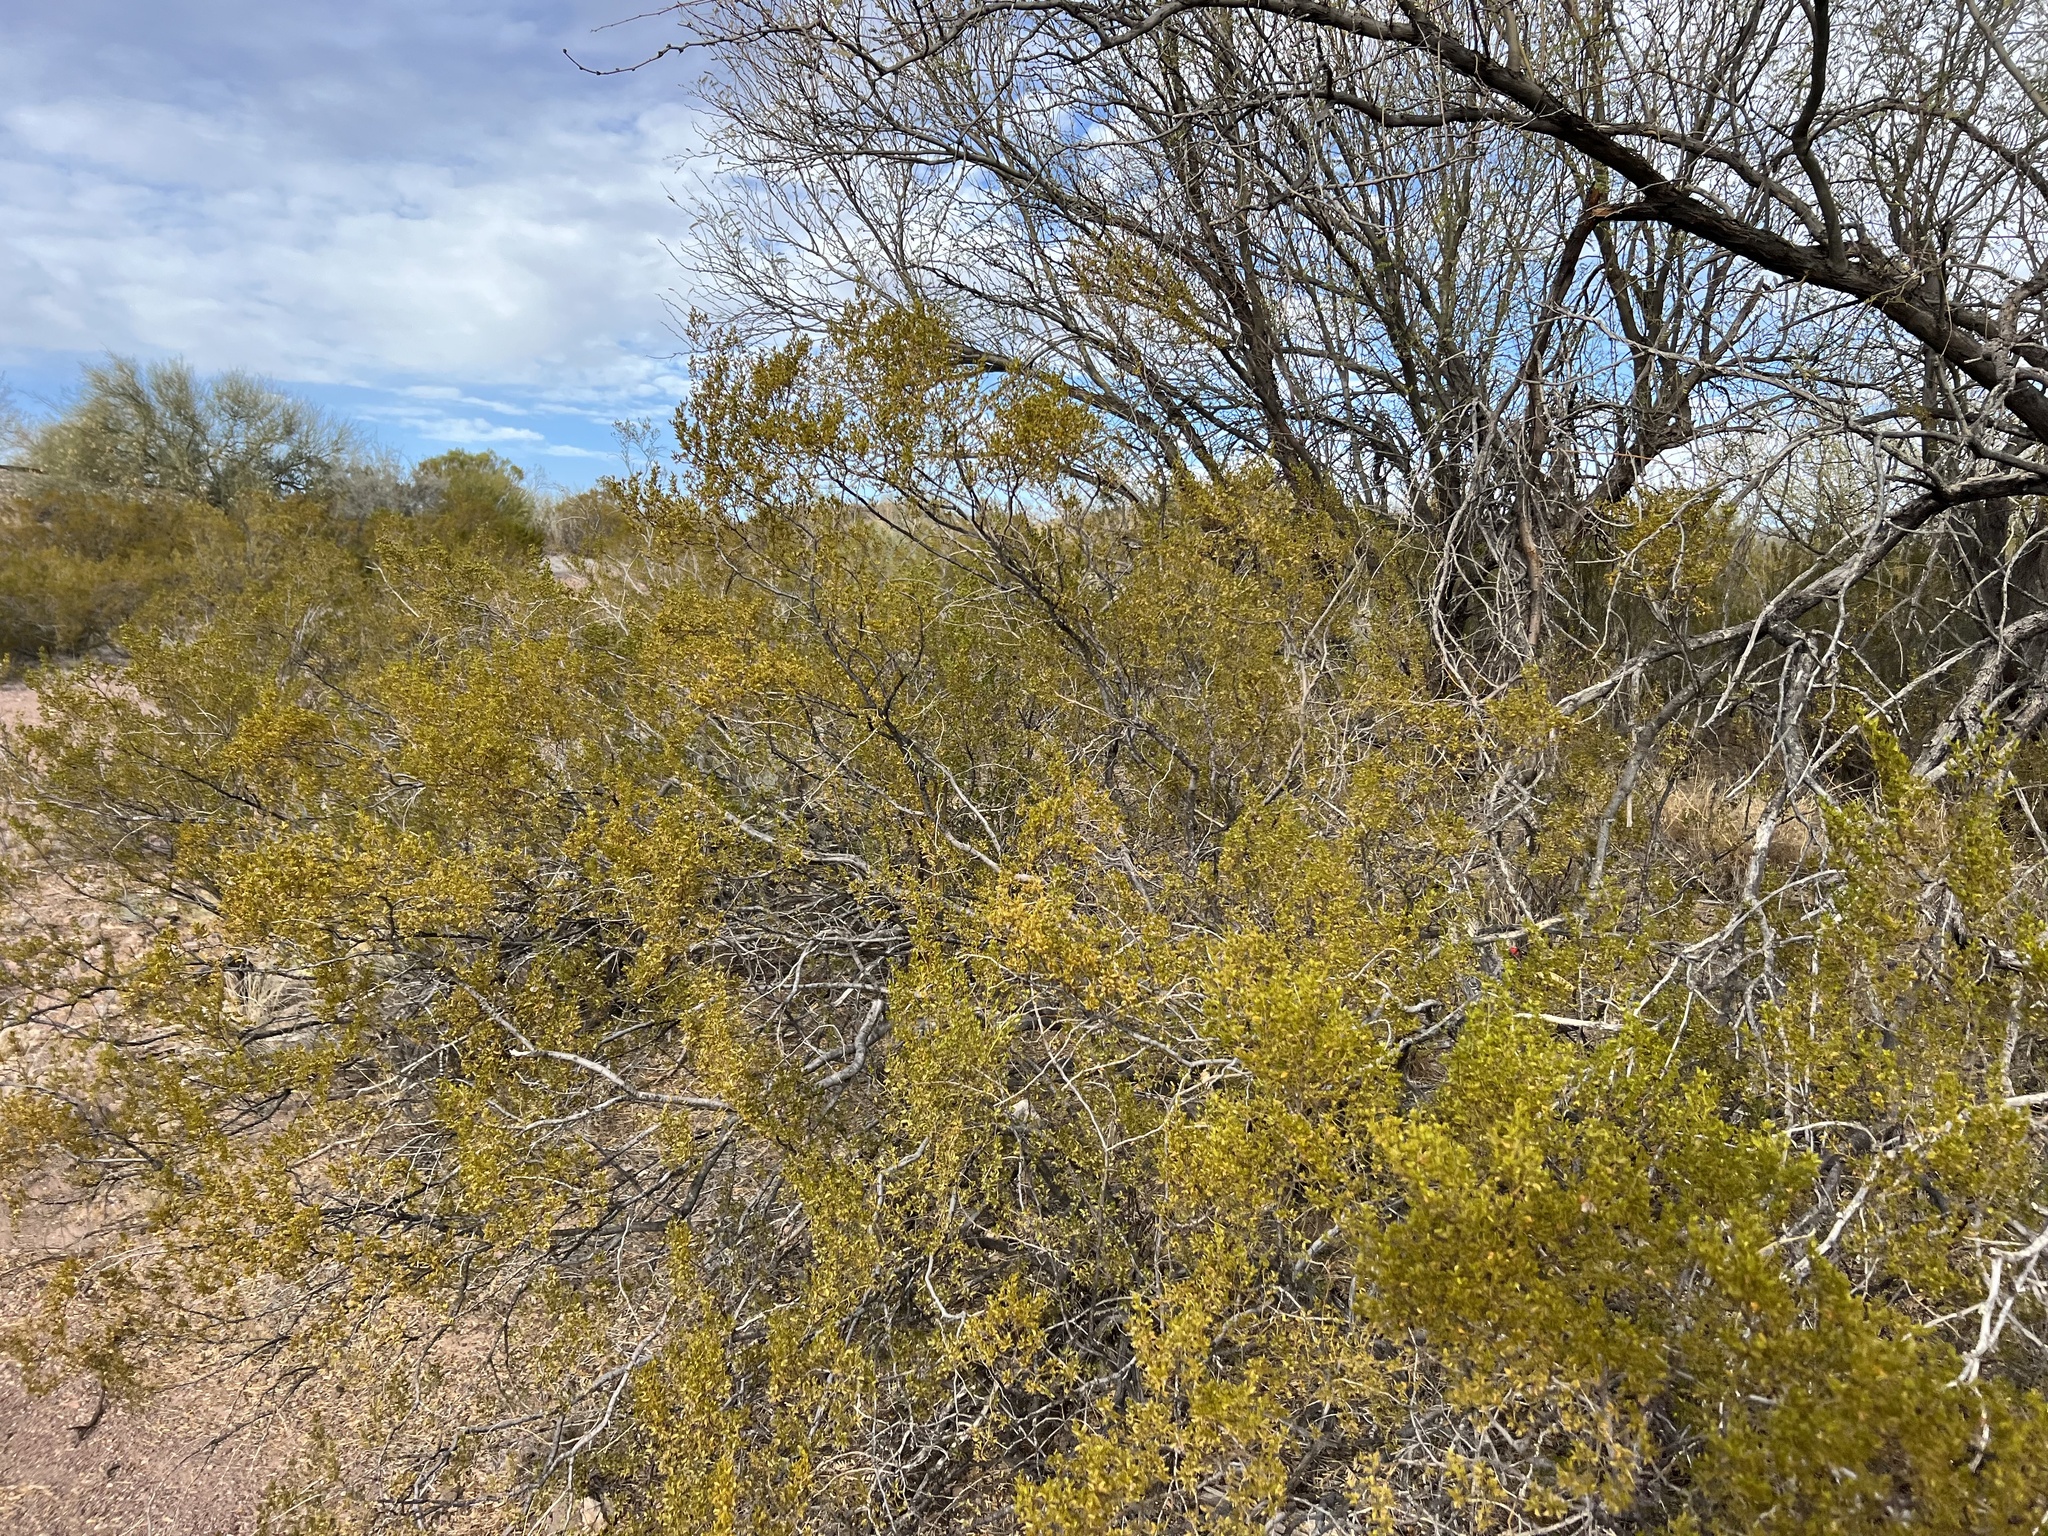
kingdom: Plantae
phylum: Tracheophyta
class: Magnoliopsida
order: Zygophyllales
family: Zygophyllaceae
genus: Larrea
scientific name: Larrea tridentata
